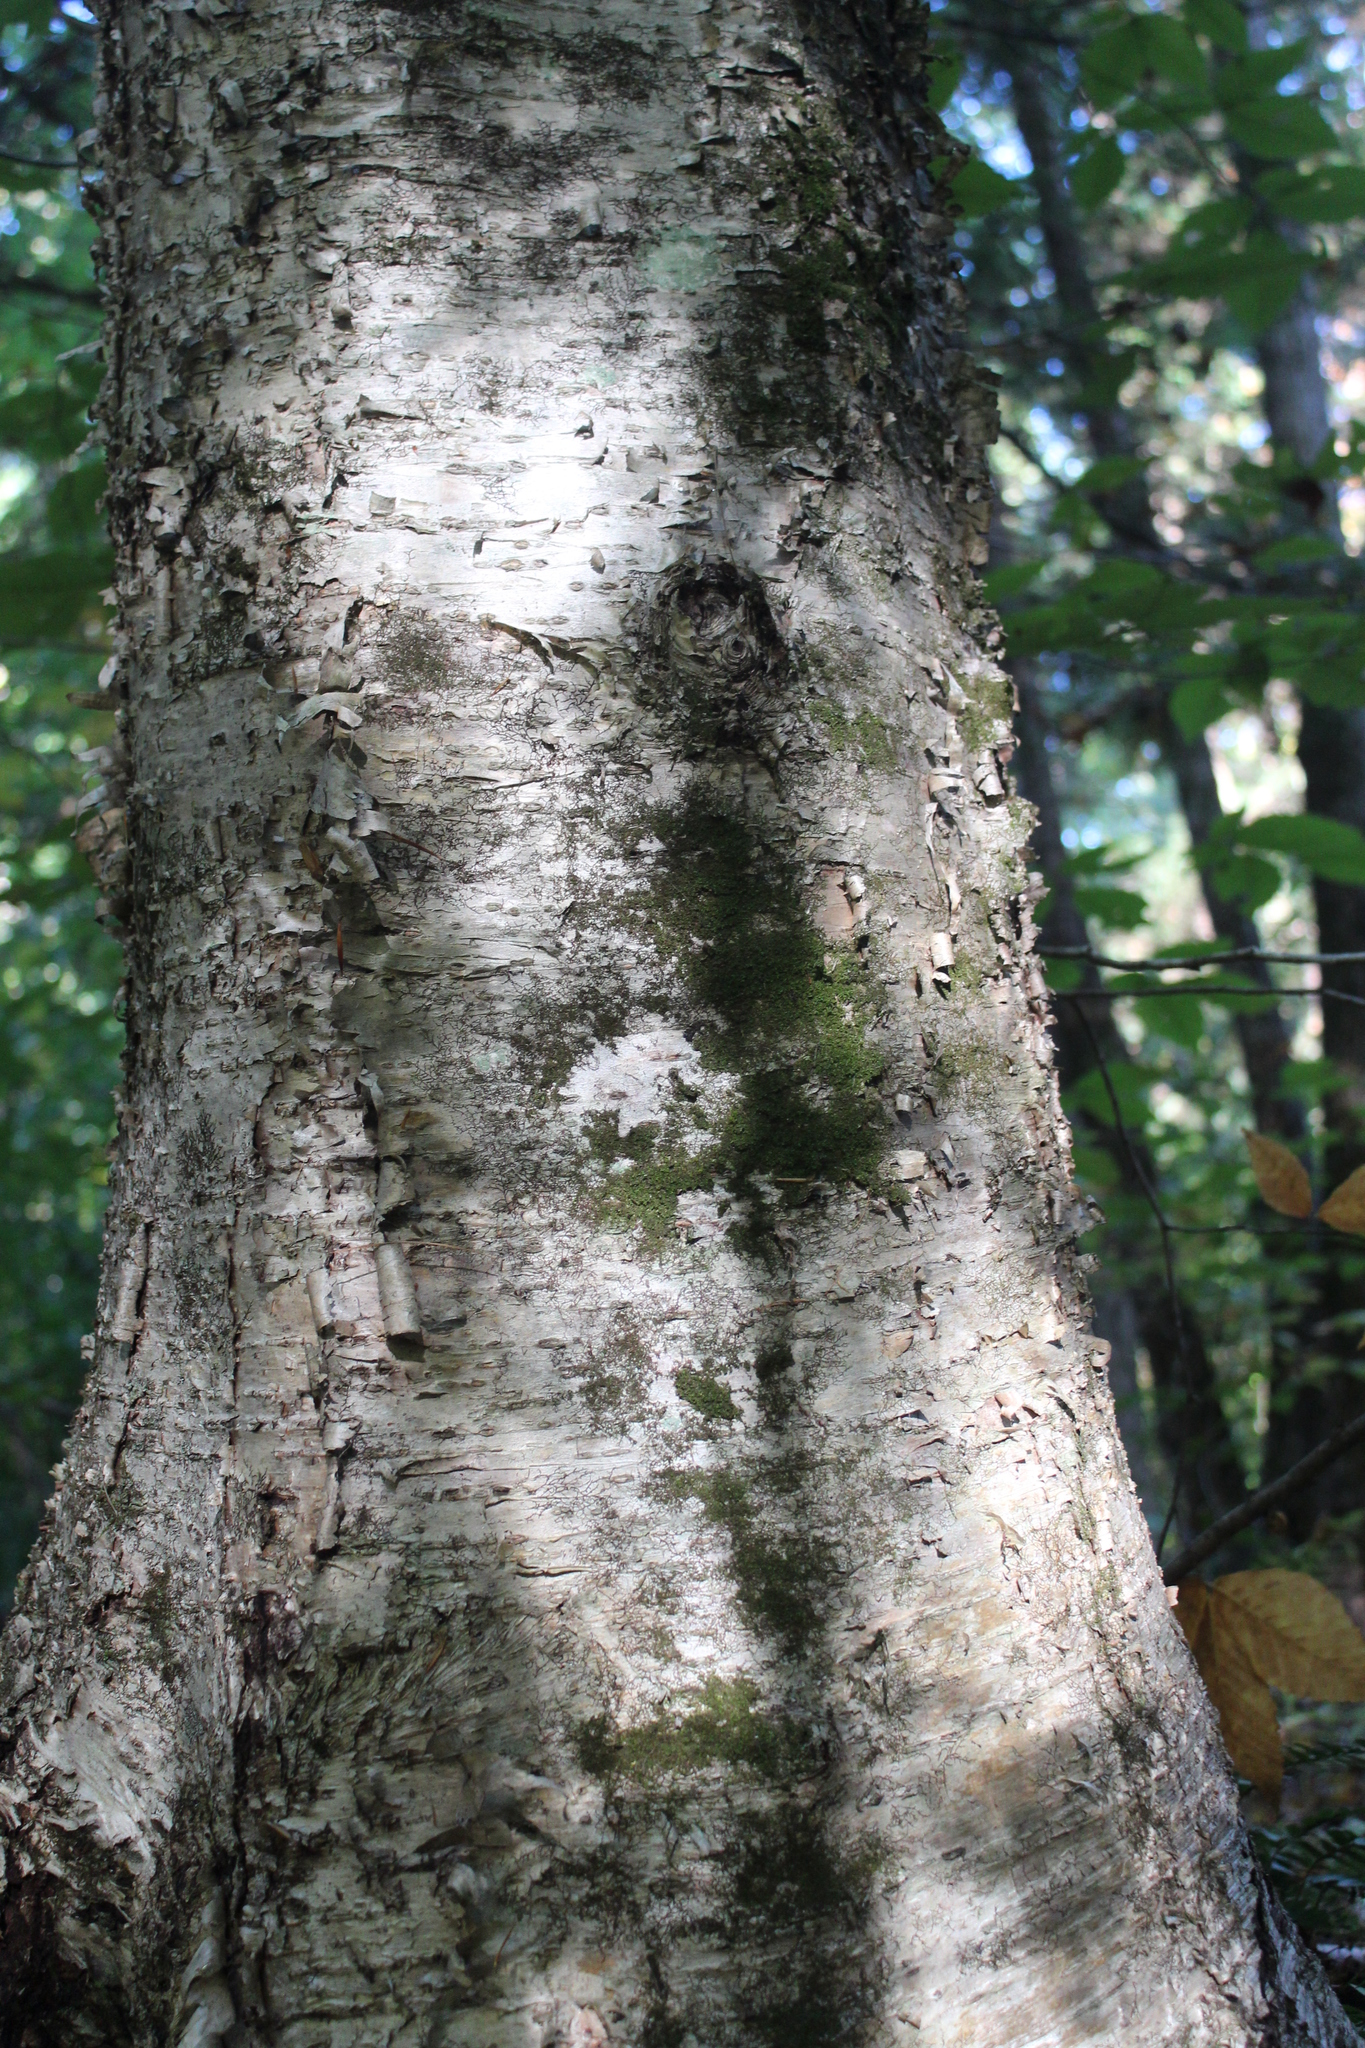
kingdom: Plantae
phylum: Tracheophyta
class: Magnoliopsida
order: Fagales
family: Betulaceae
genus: Betula
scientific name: Betula alleghaniensis
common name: Yellow birch
